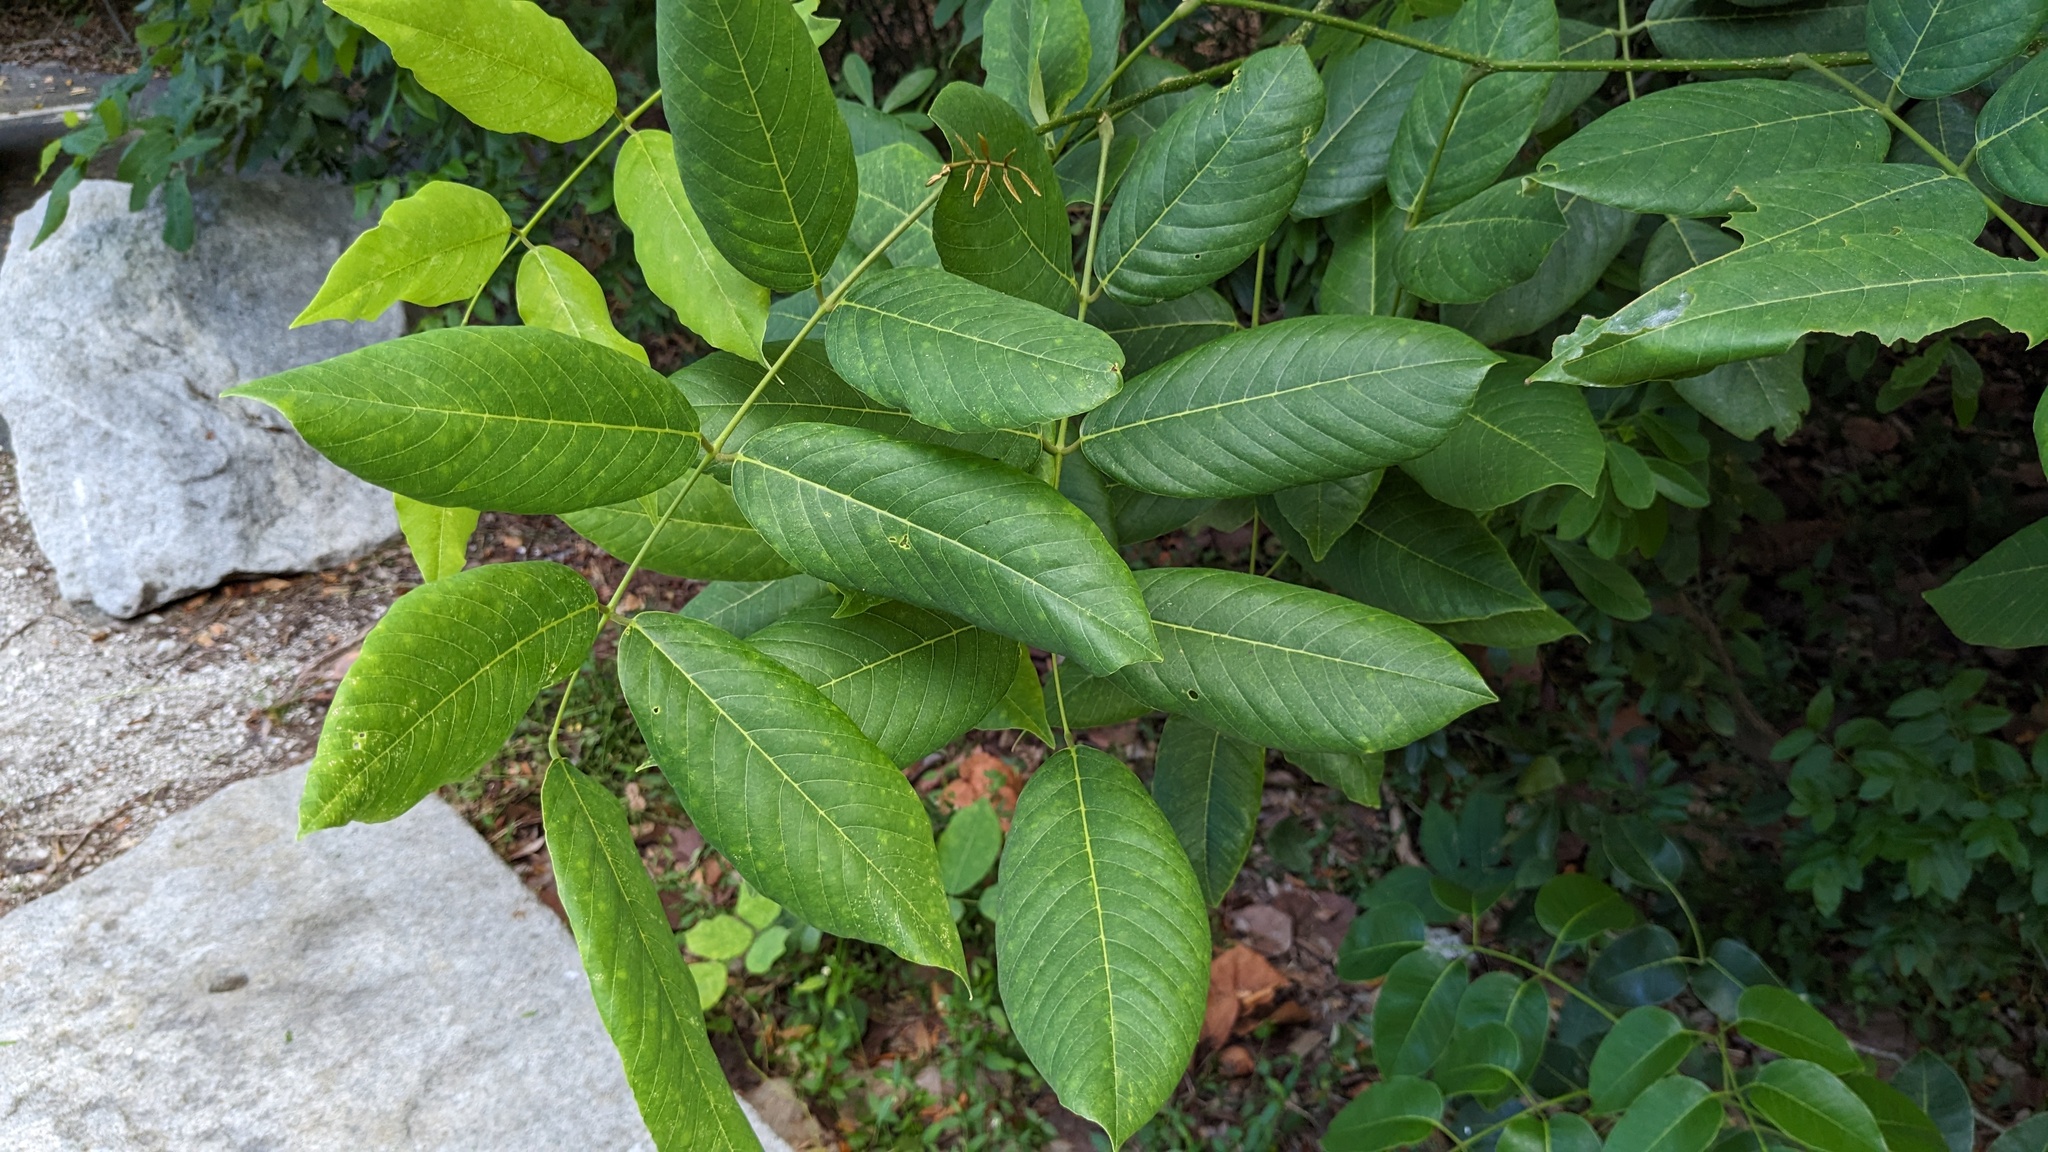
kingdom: Plantae
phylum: Tracheophyta
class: Magnoliopsida
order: Fabales
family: Fabaceae
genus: Piscidia
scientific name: Piscidia piscipula
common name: Florida fishpoison tree
